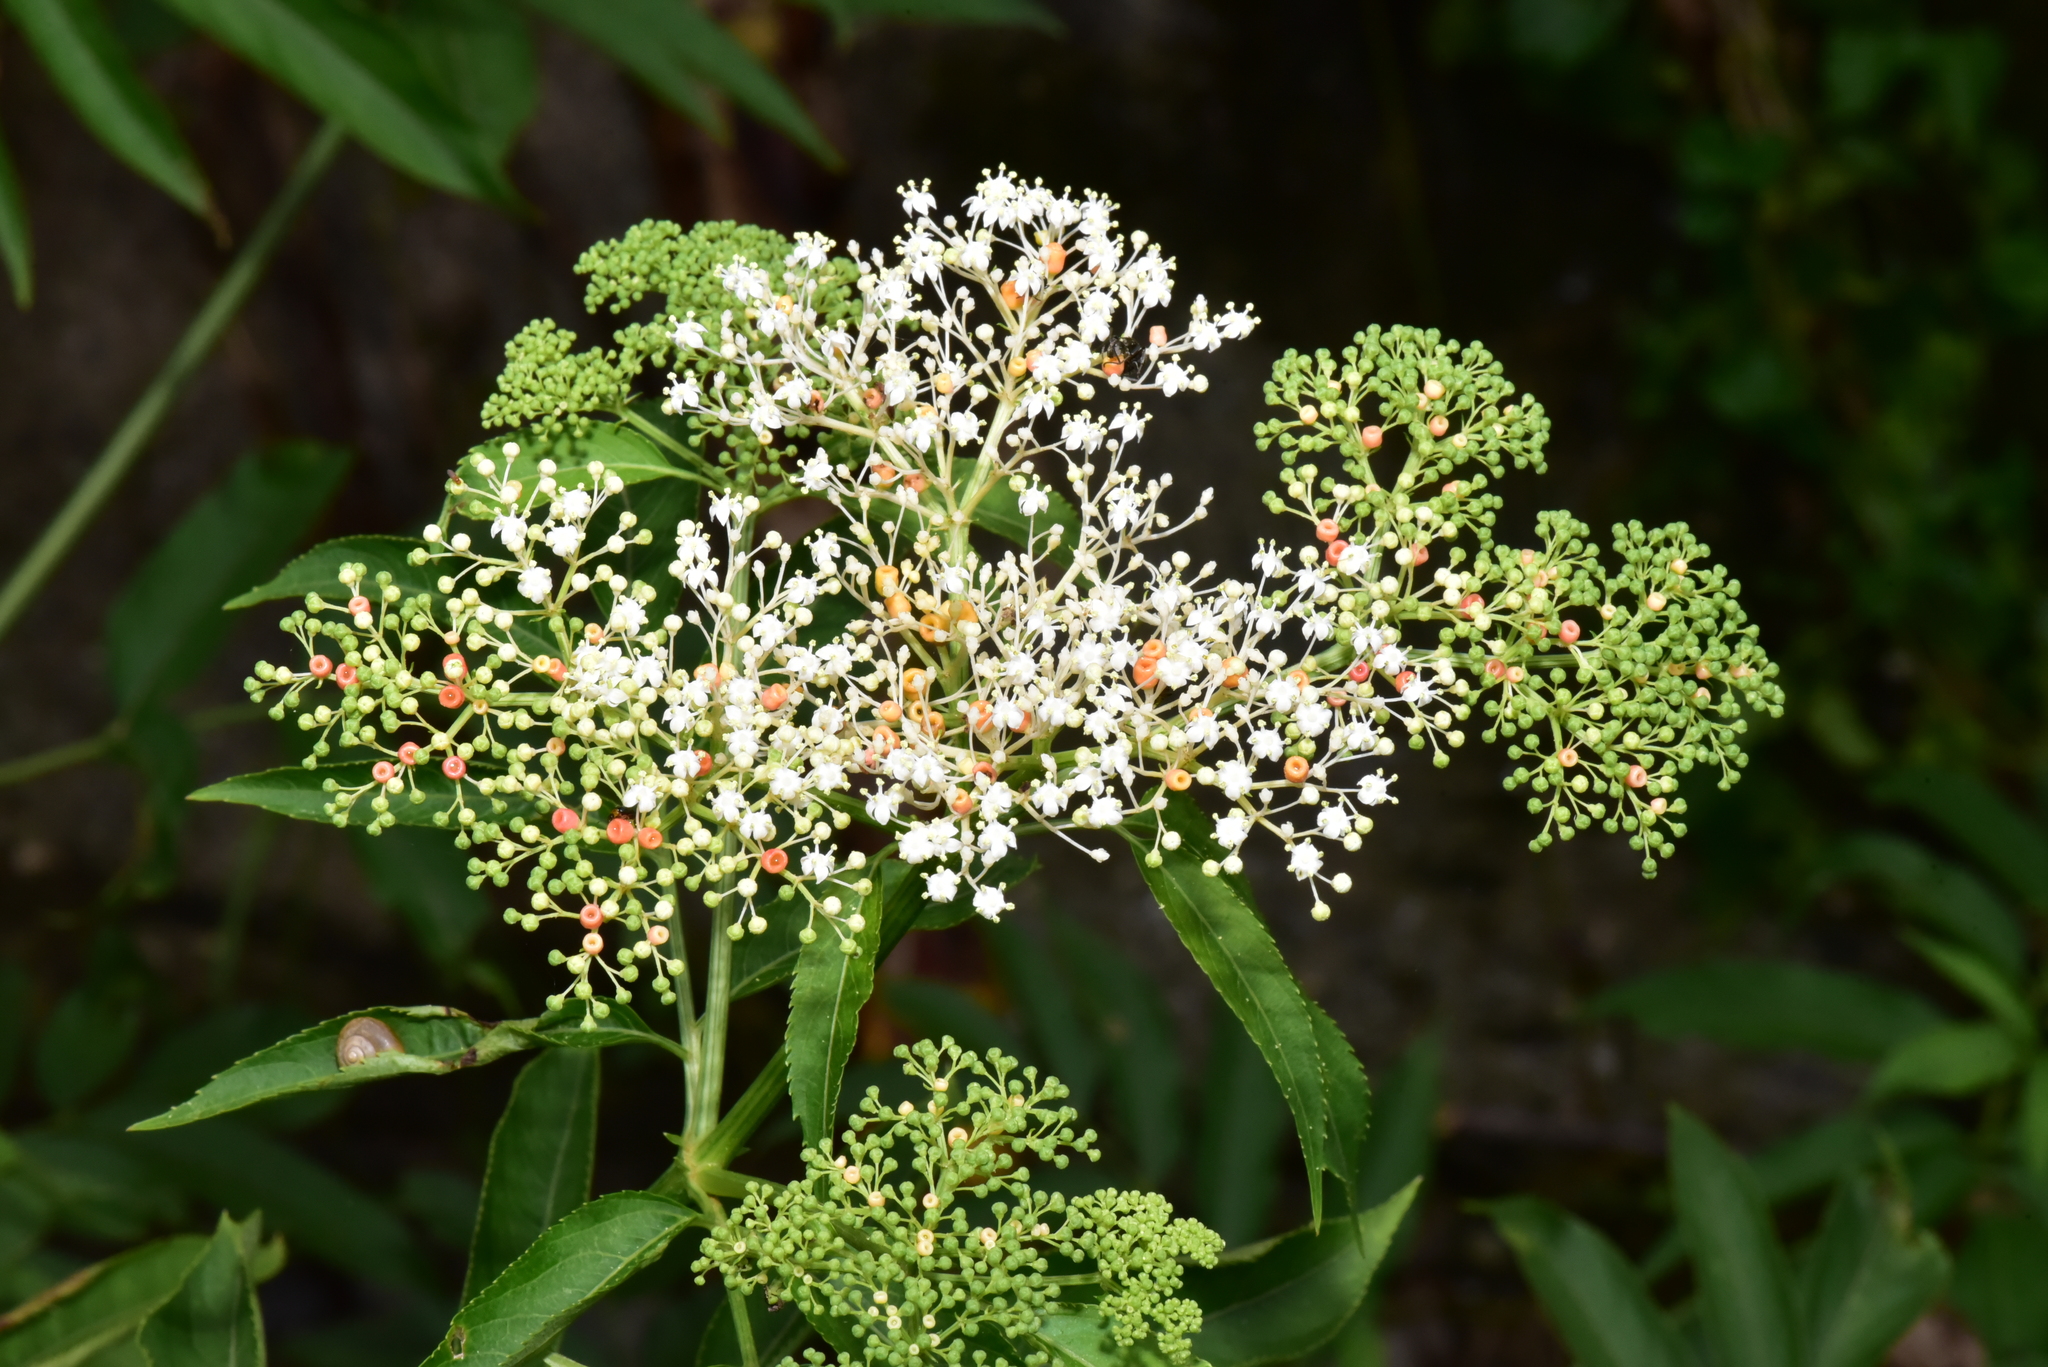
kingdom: Plantae
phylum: Tracheophyta
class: Magnoliopsida
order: Dipsacales
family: Viburnaceae
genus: Sambucus
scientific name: Sambucus javanica
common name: Chinese elder
